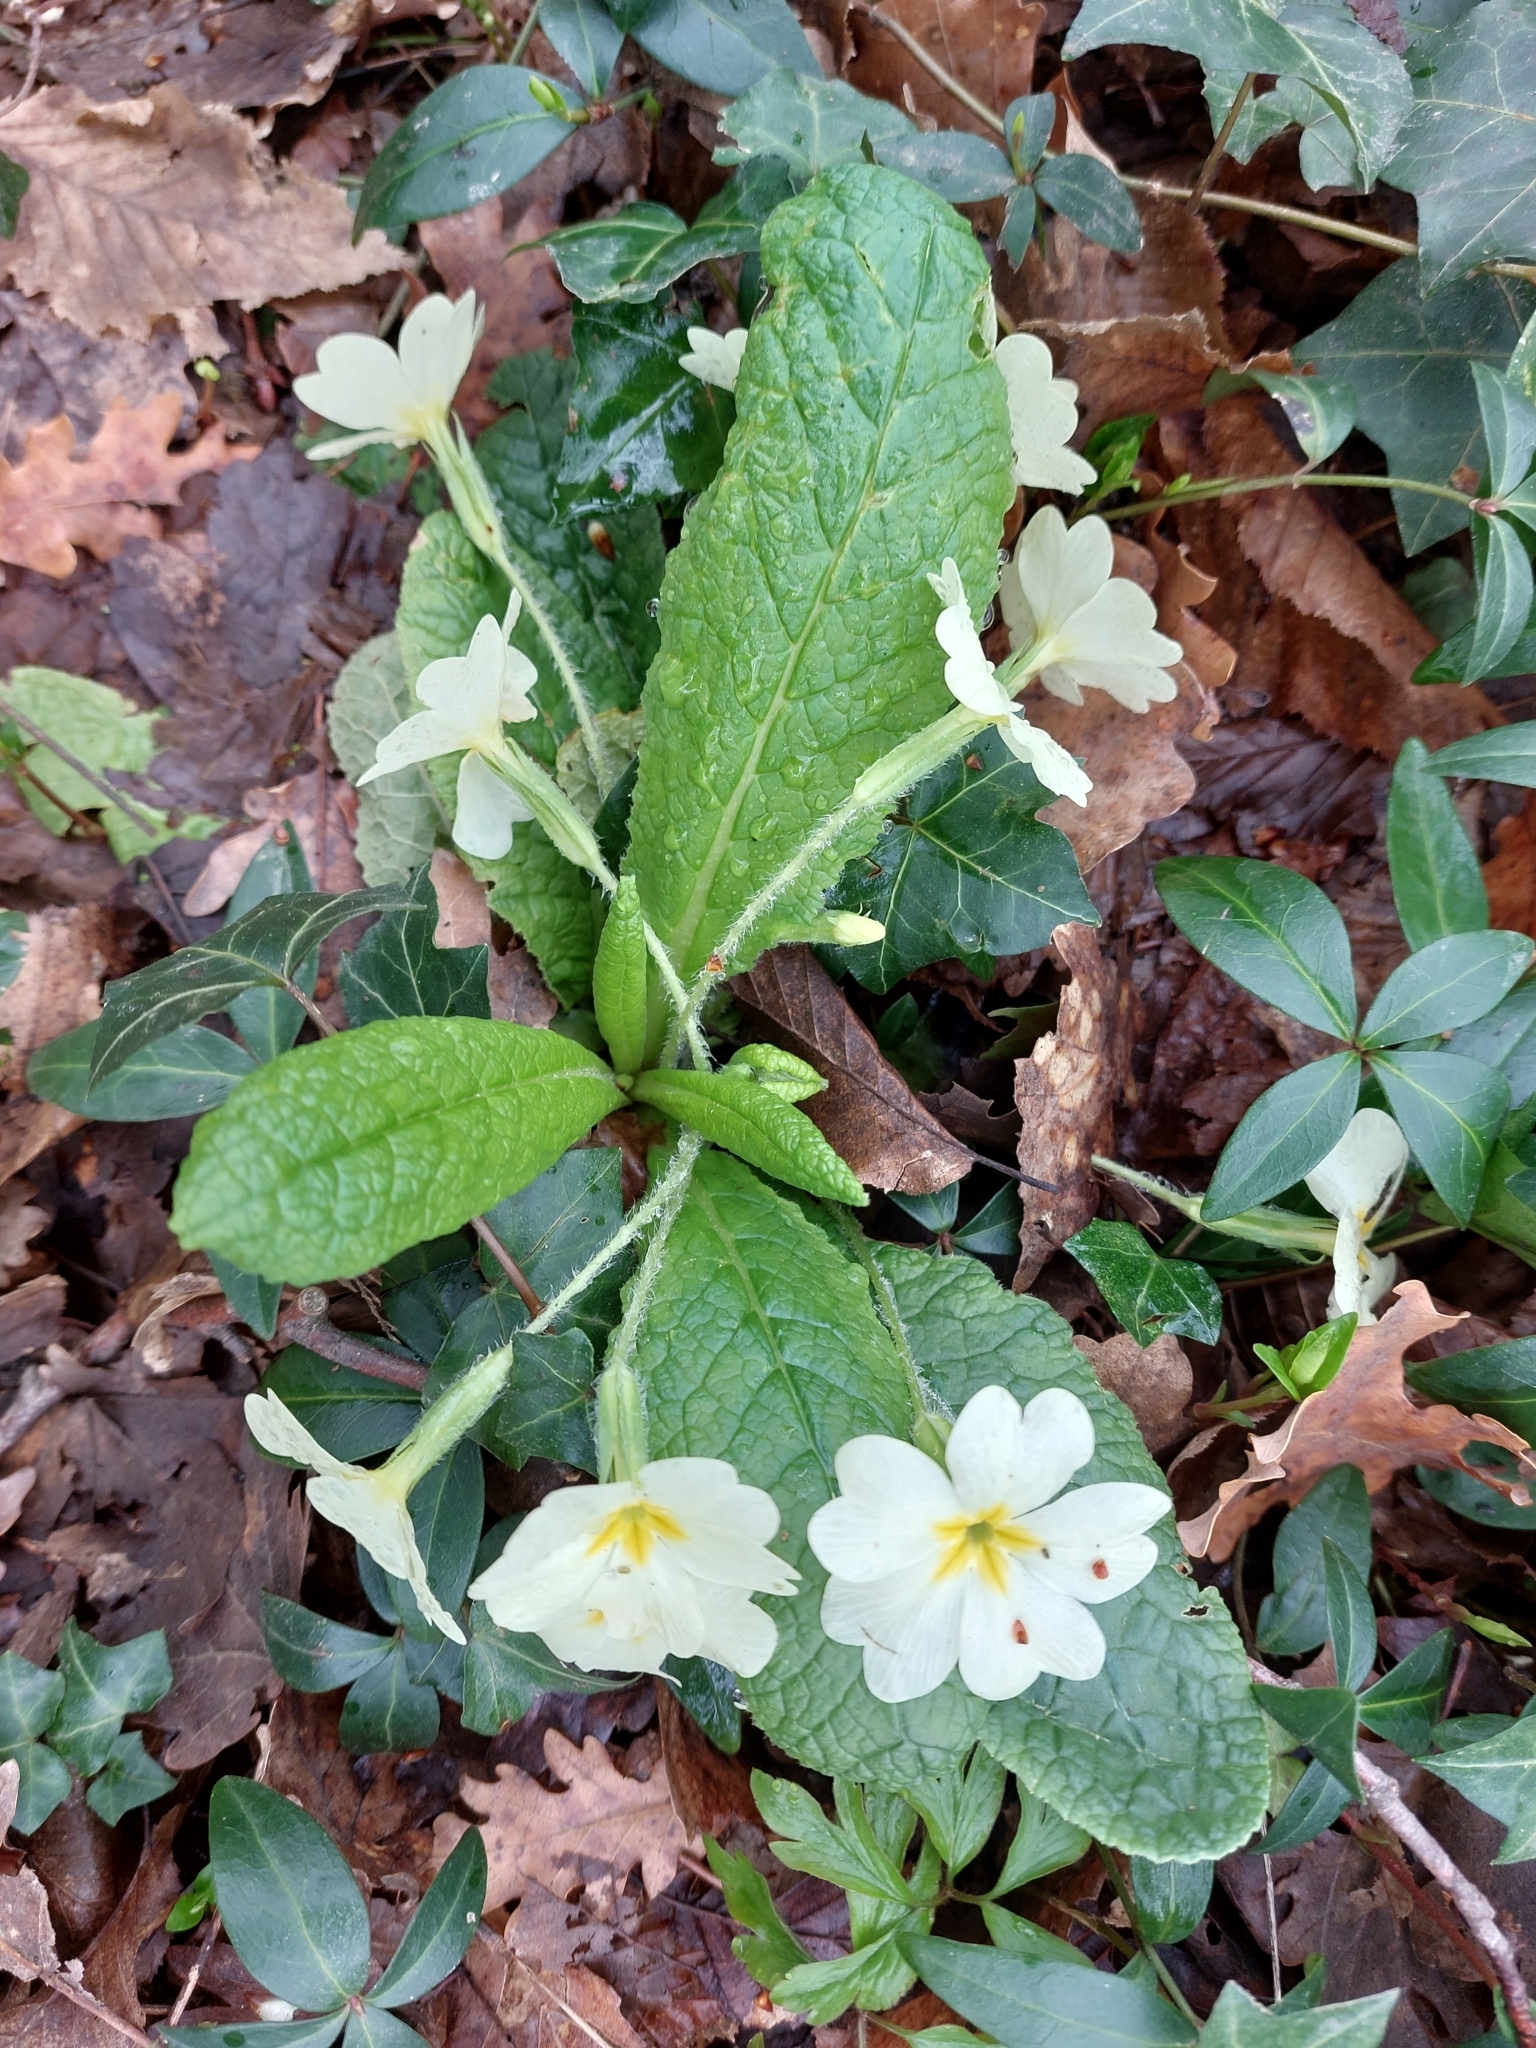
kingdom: Plantae
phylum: Tracheophyta
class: Magnoliopsida
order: Ericales
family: Primulaceae
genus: Primula
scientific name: Primula vulgaris
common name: Primrose
